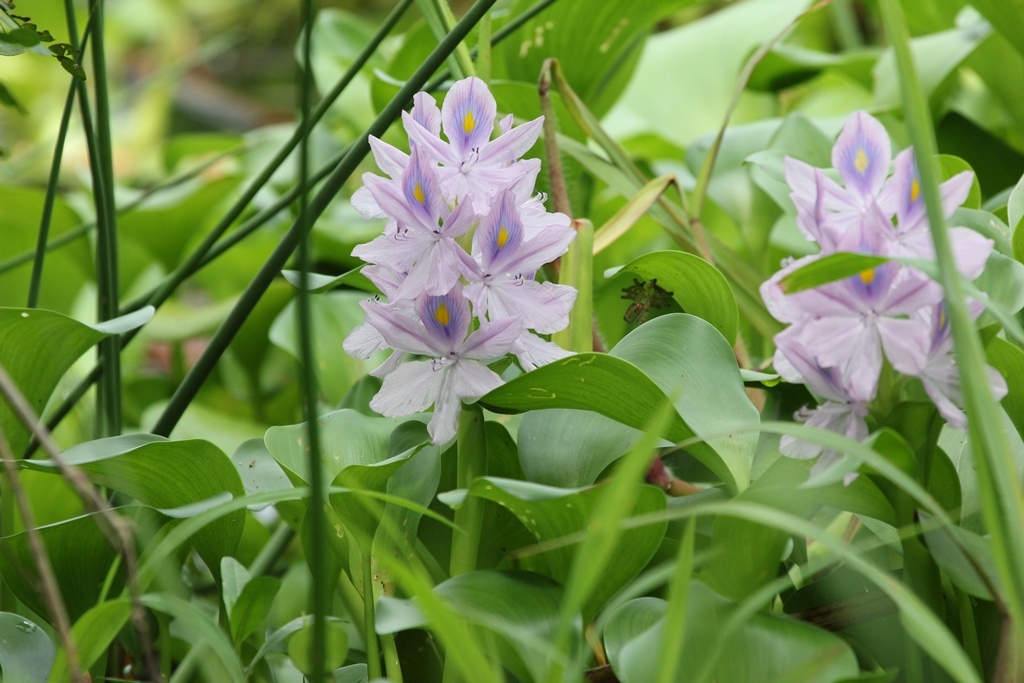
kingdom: Plantae
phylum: Tracheophyta
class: Liliopsida
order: Commelinales
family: Pontederiaceae
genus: Pontederia
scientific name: Pontederia crassipes
